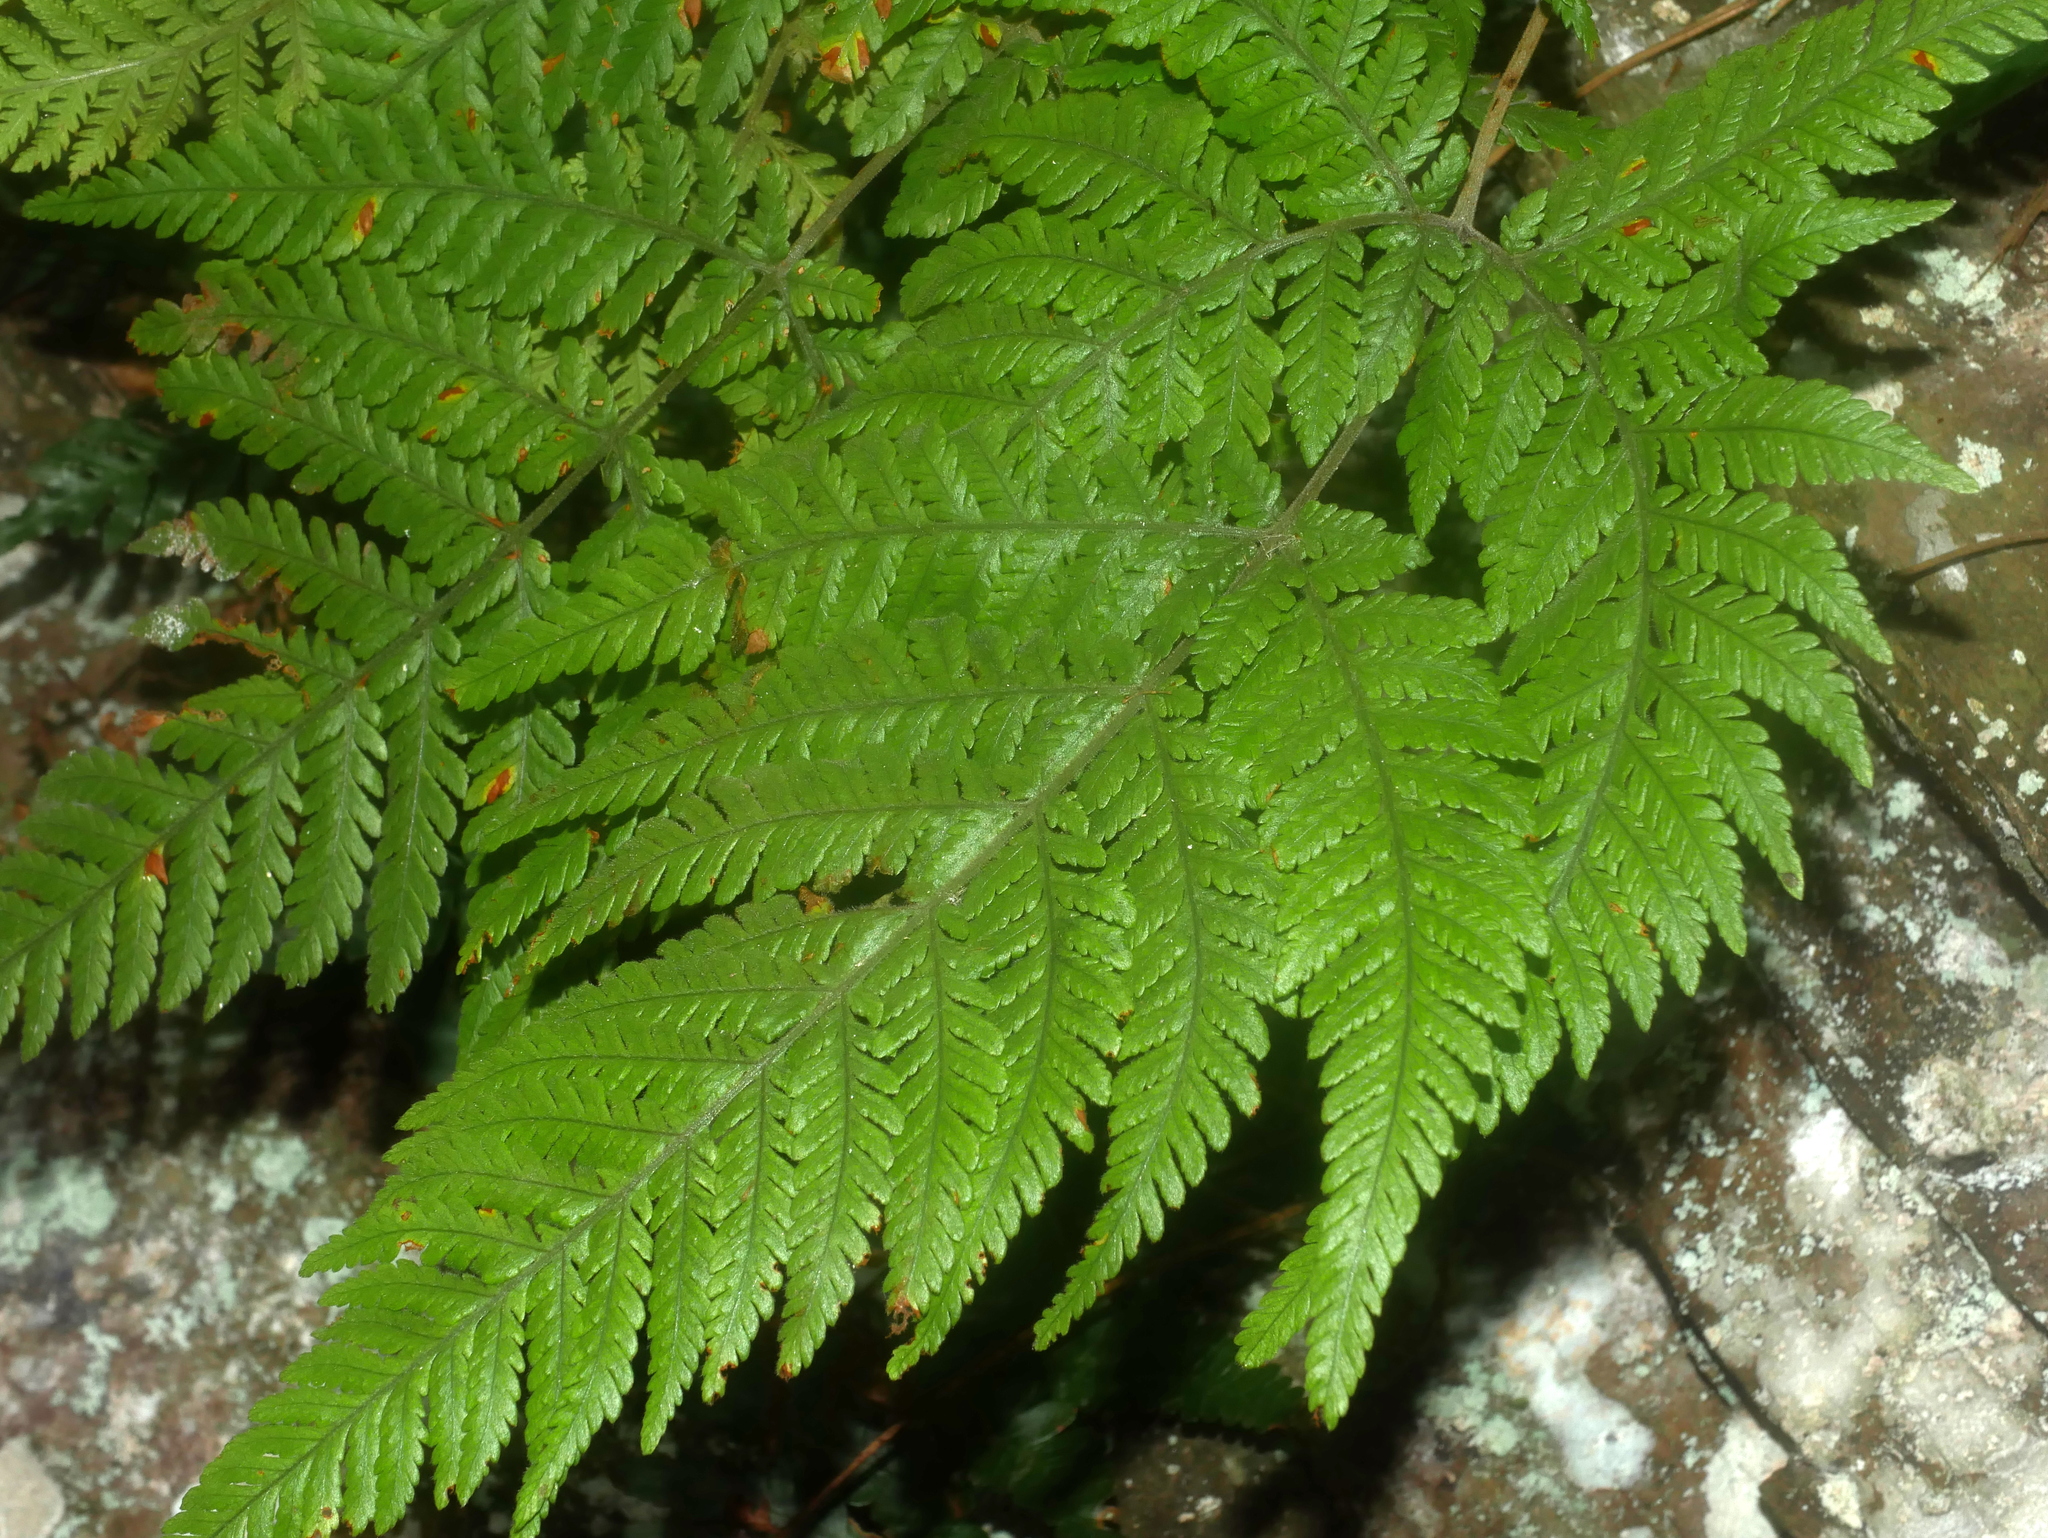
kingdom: Plantae
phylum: Tracheophyta
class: Polypodiopsida
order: Polypodiales
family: Dryopteridaceae
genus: Lastreopsis
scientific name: Lastreopsis tenera
